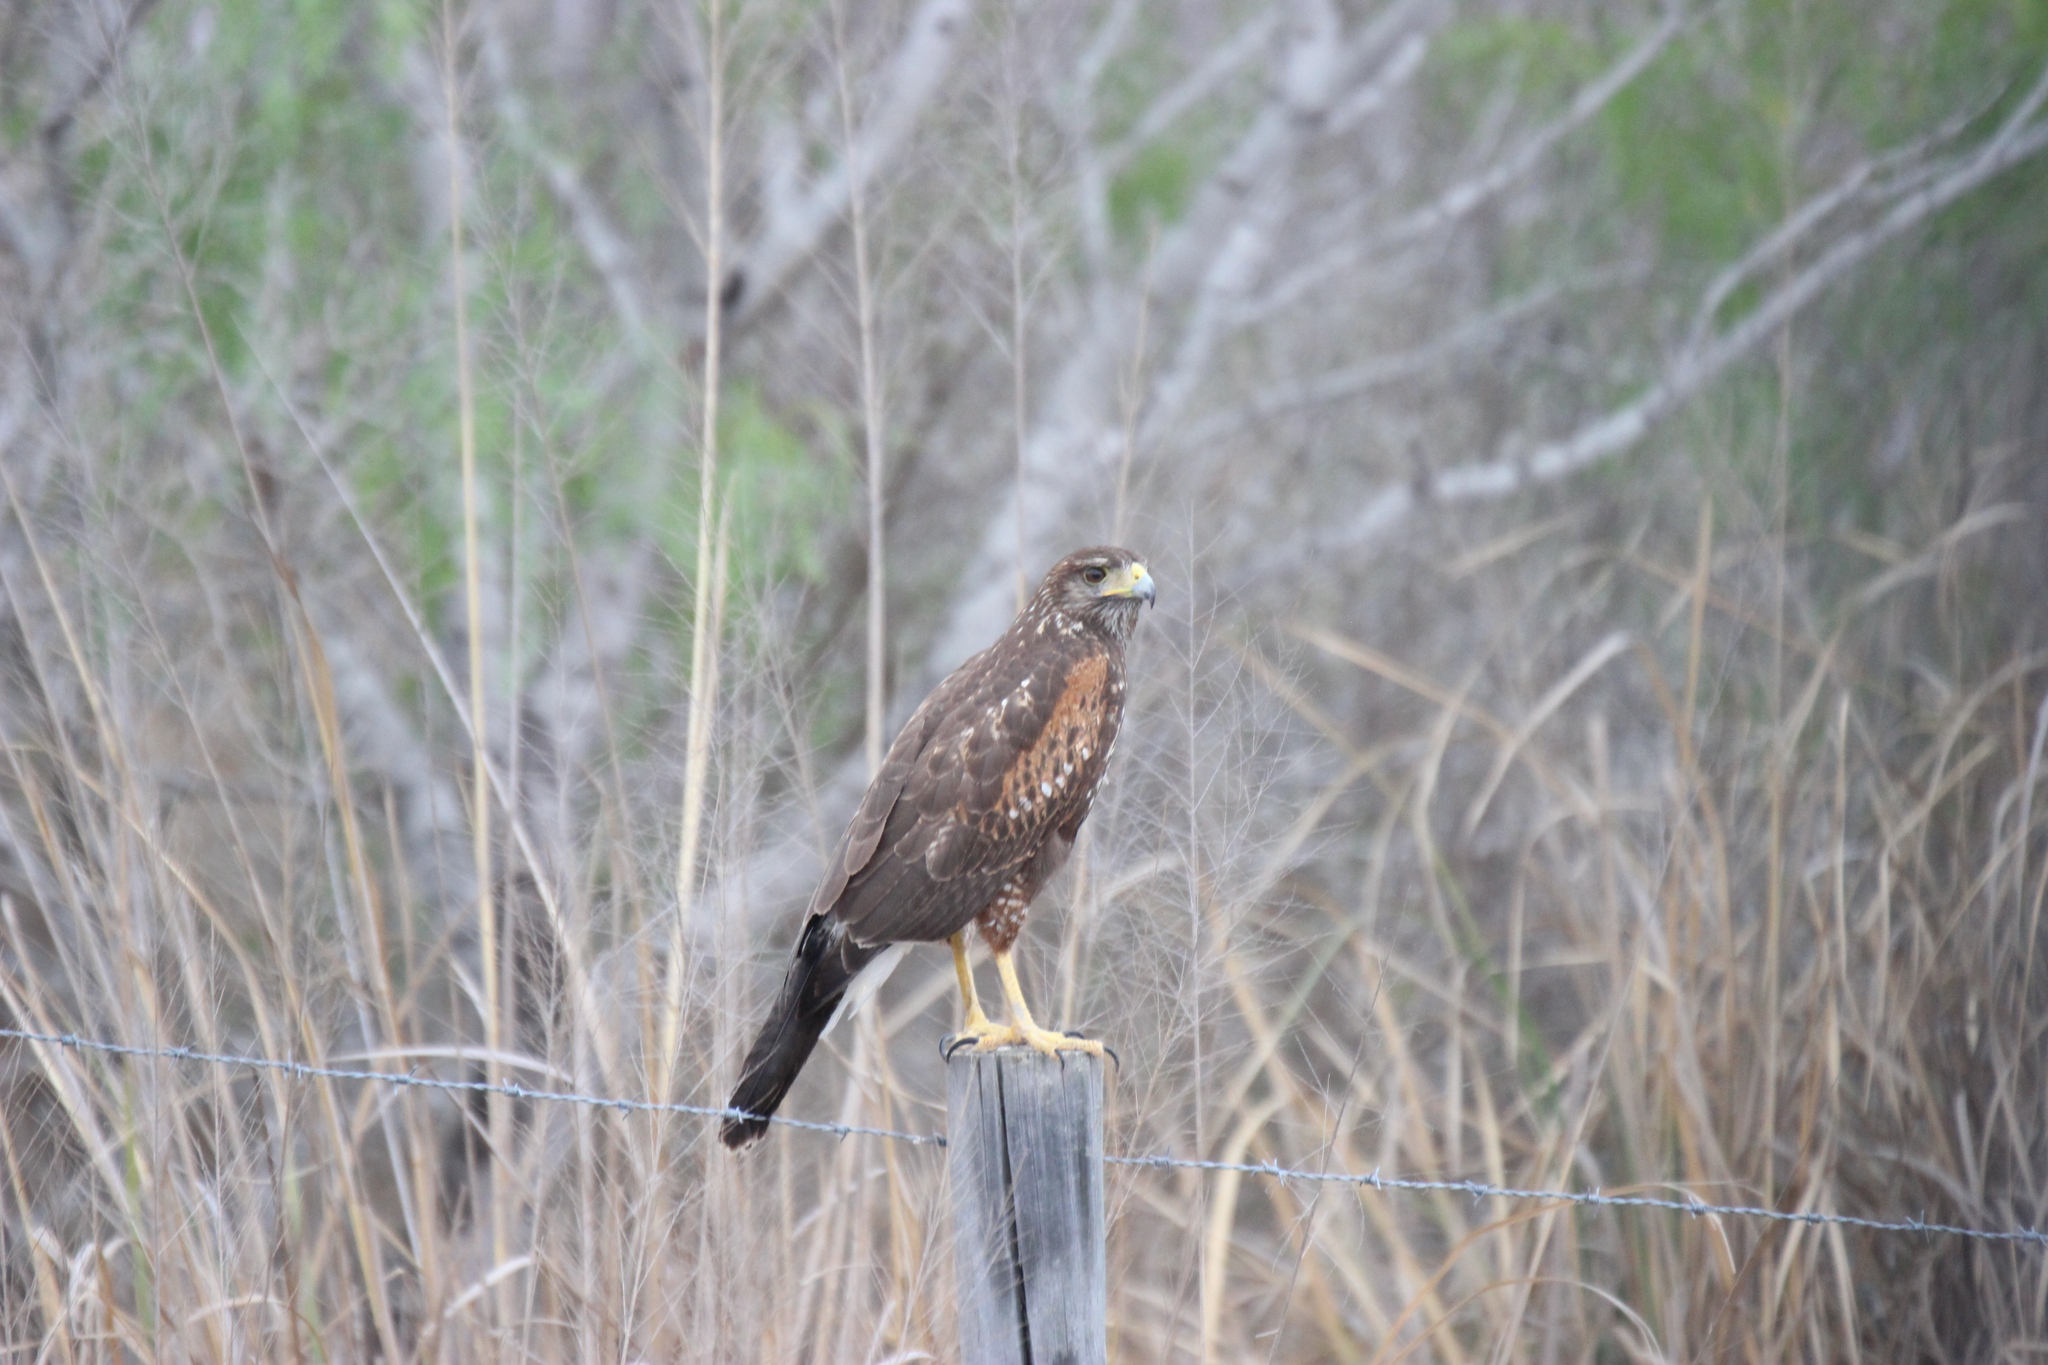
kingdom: Animalia
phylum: Chordata
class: Aves
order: Accipitriformes
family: Accipitridae
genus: Parabuteo
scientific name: Parabuteo unicinctus
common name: Harris's hawk
